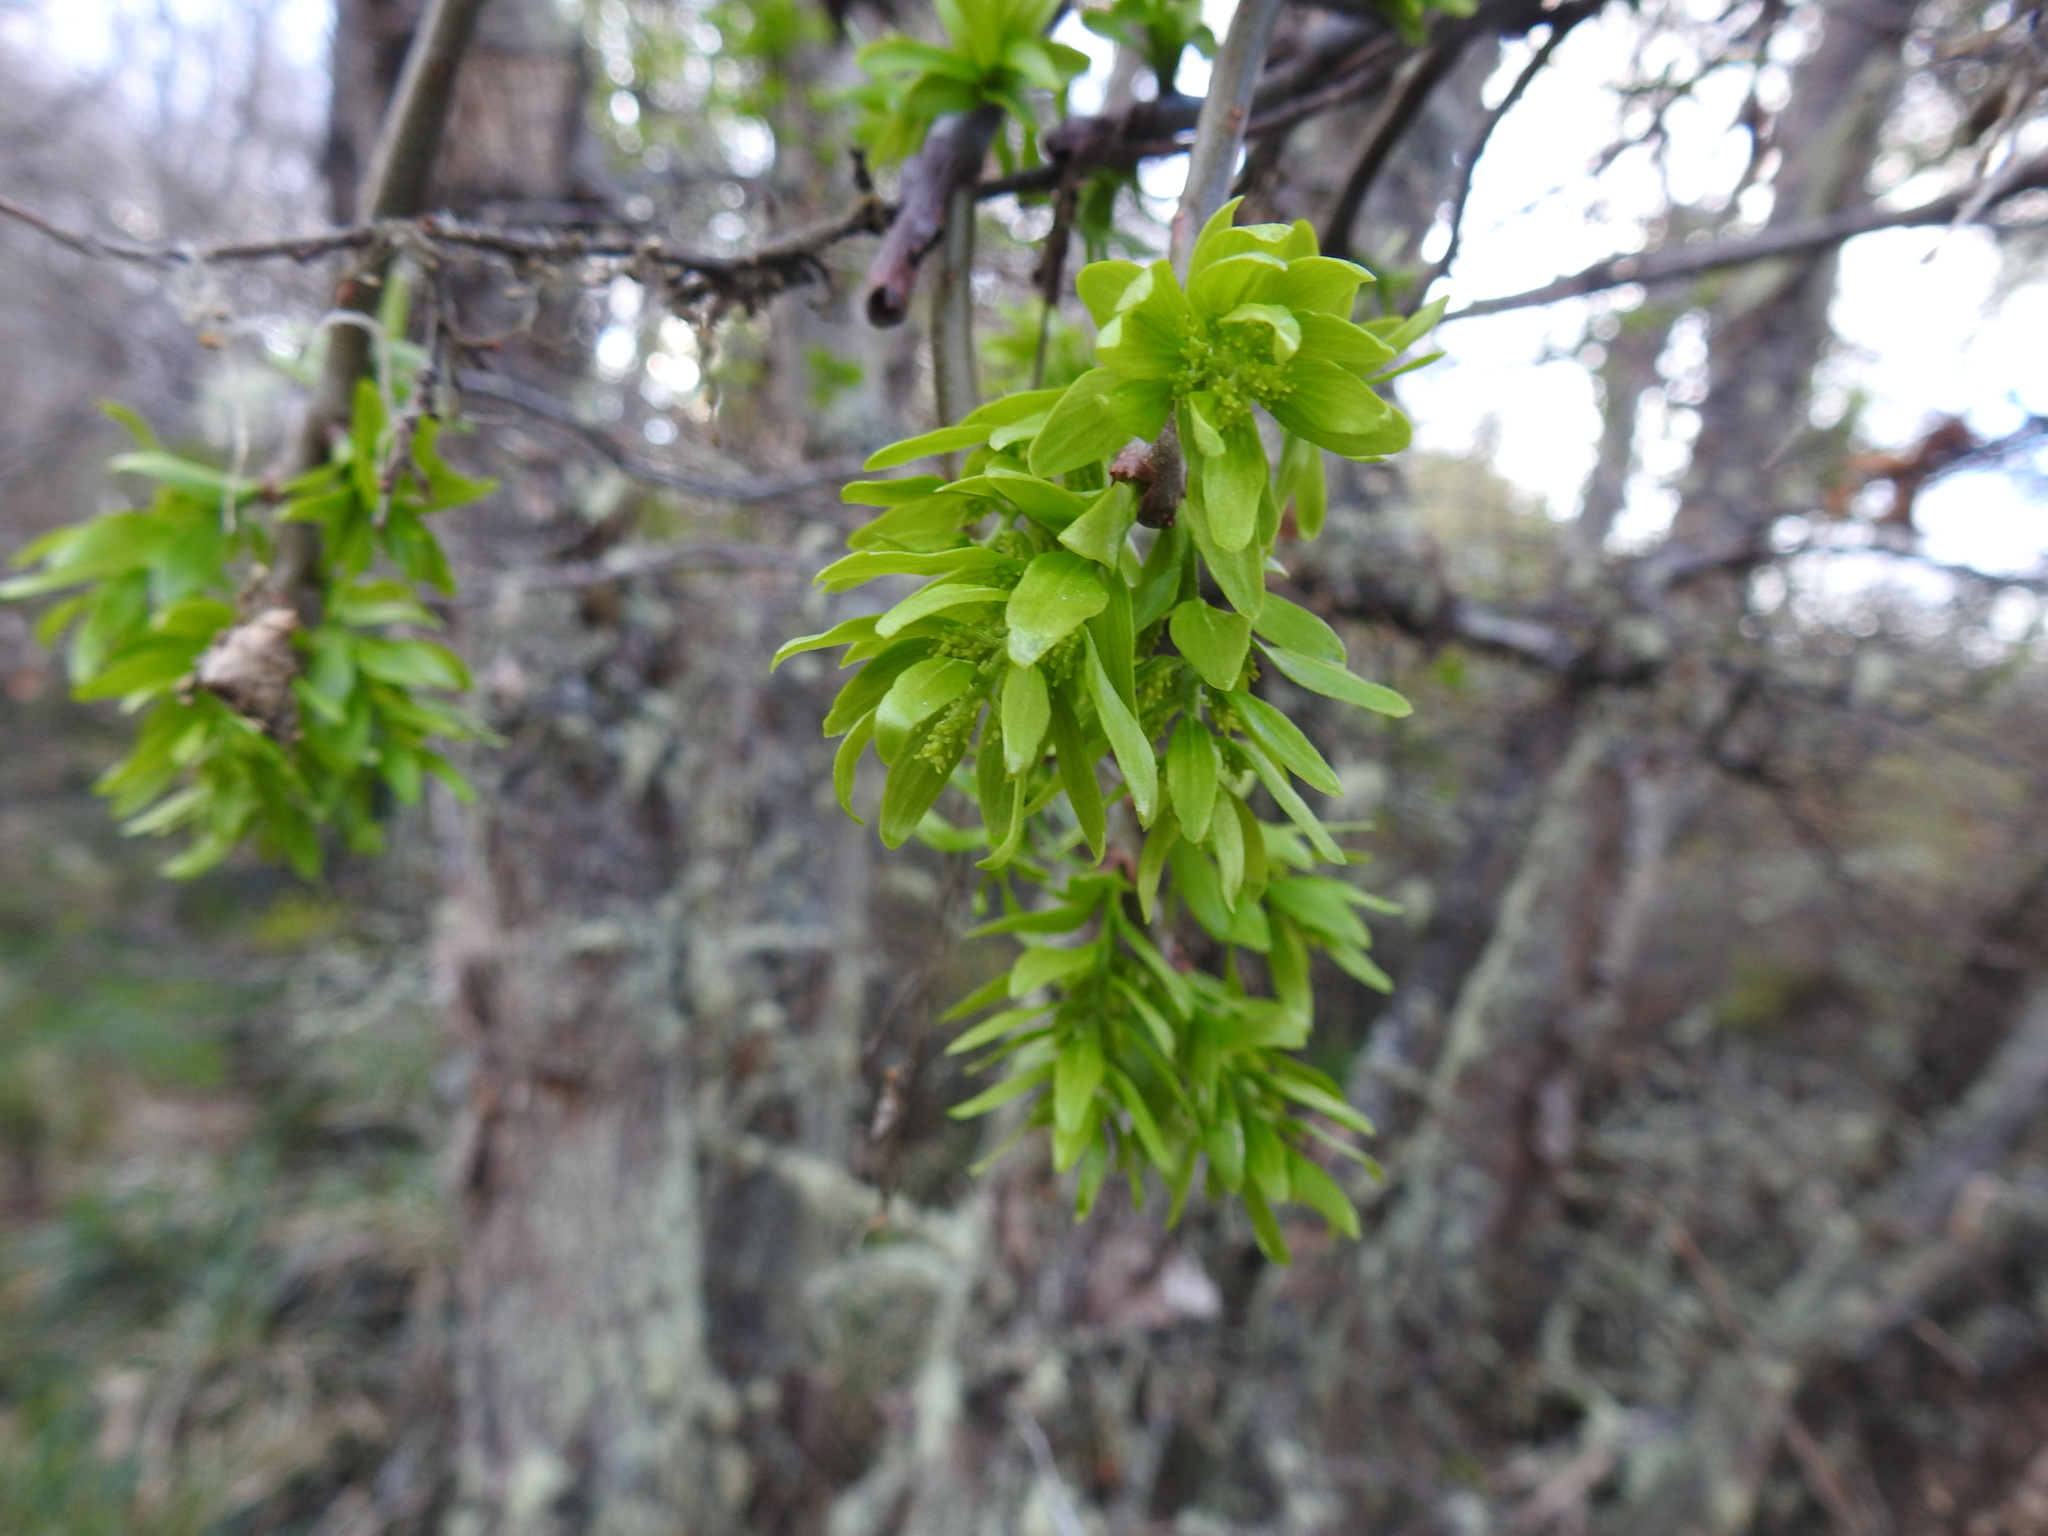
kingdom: Plantae
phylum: Tracheophyta
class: Magnoliopsida
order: Santalales
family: Misodendraceae
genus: Misodendrum
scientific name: Misodendrum brachystachyum
